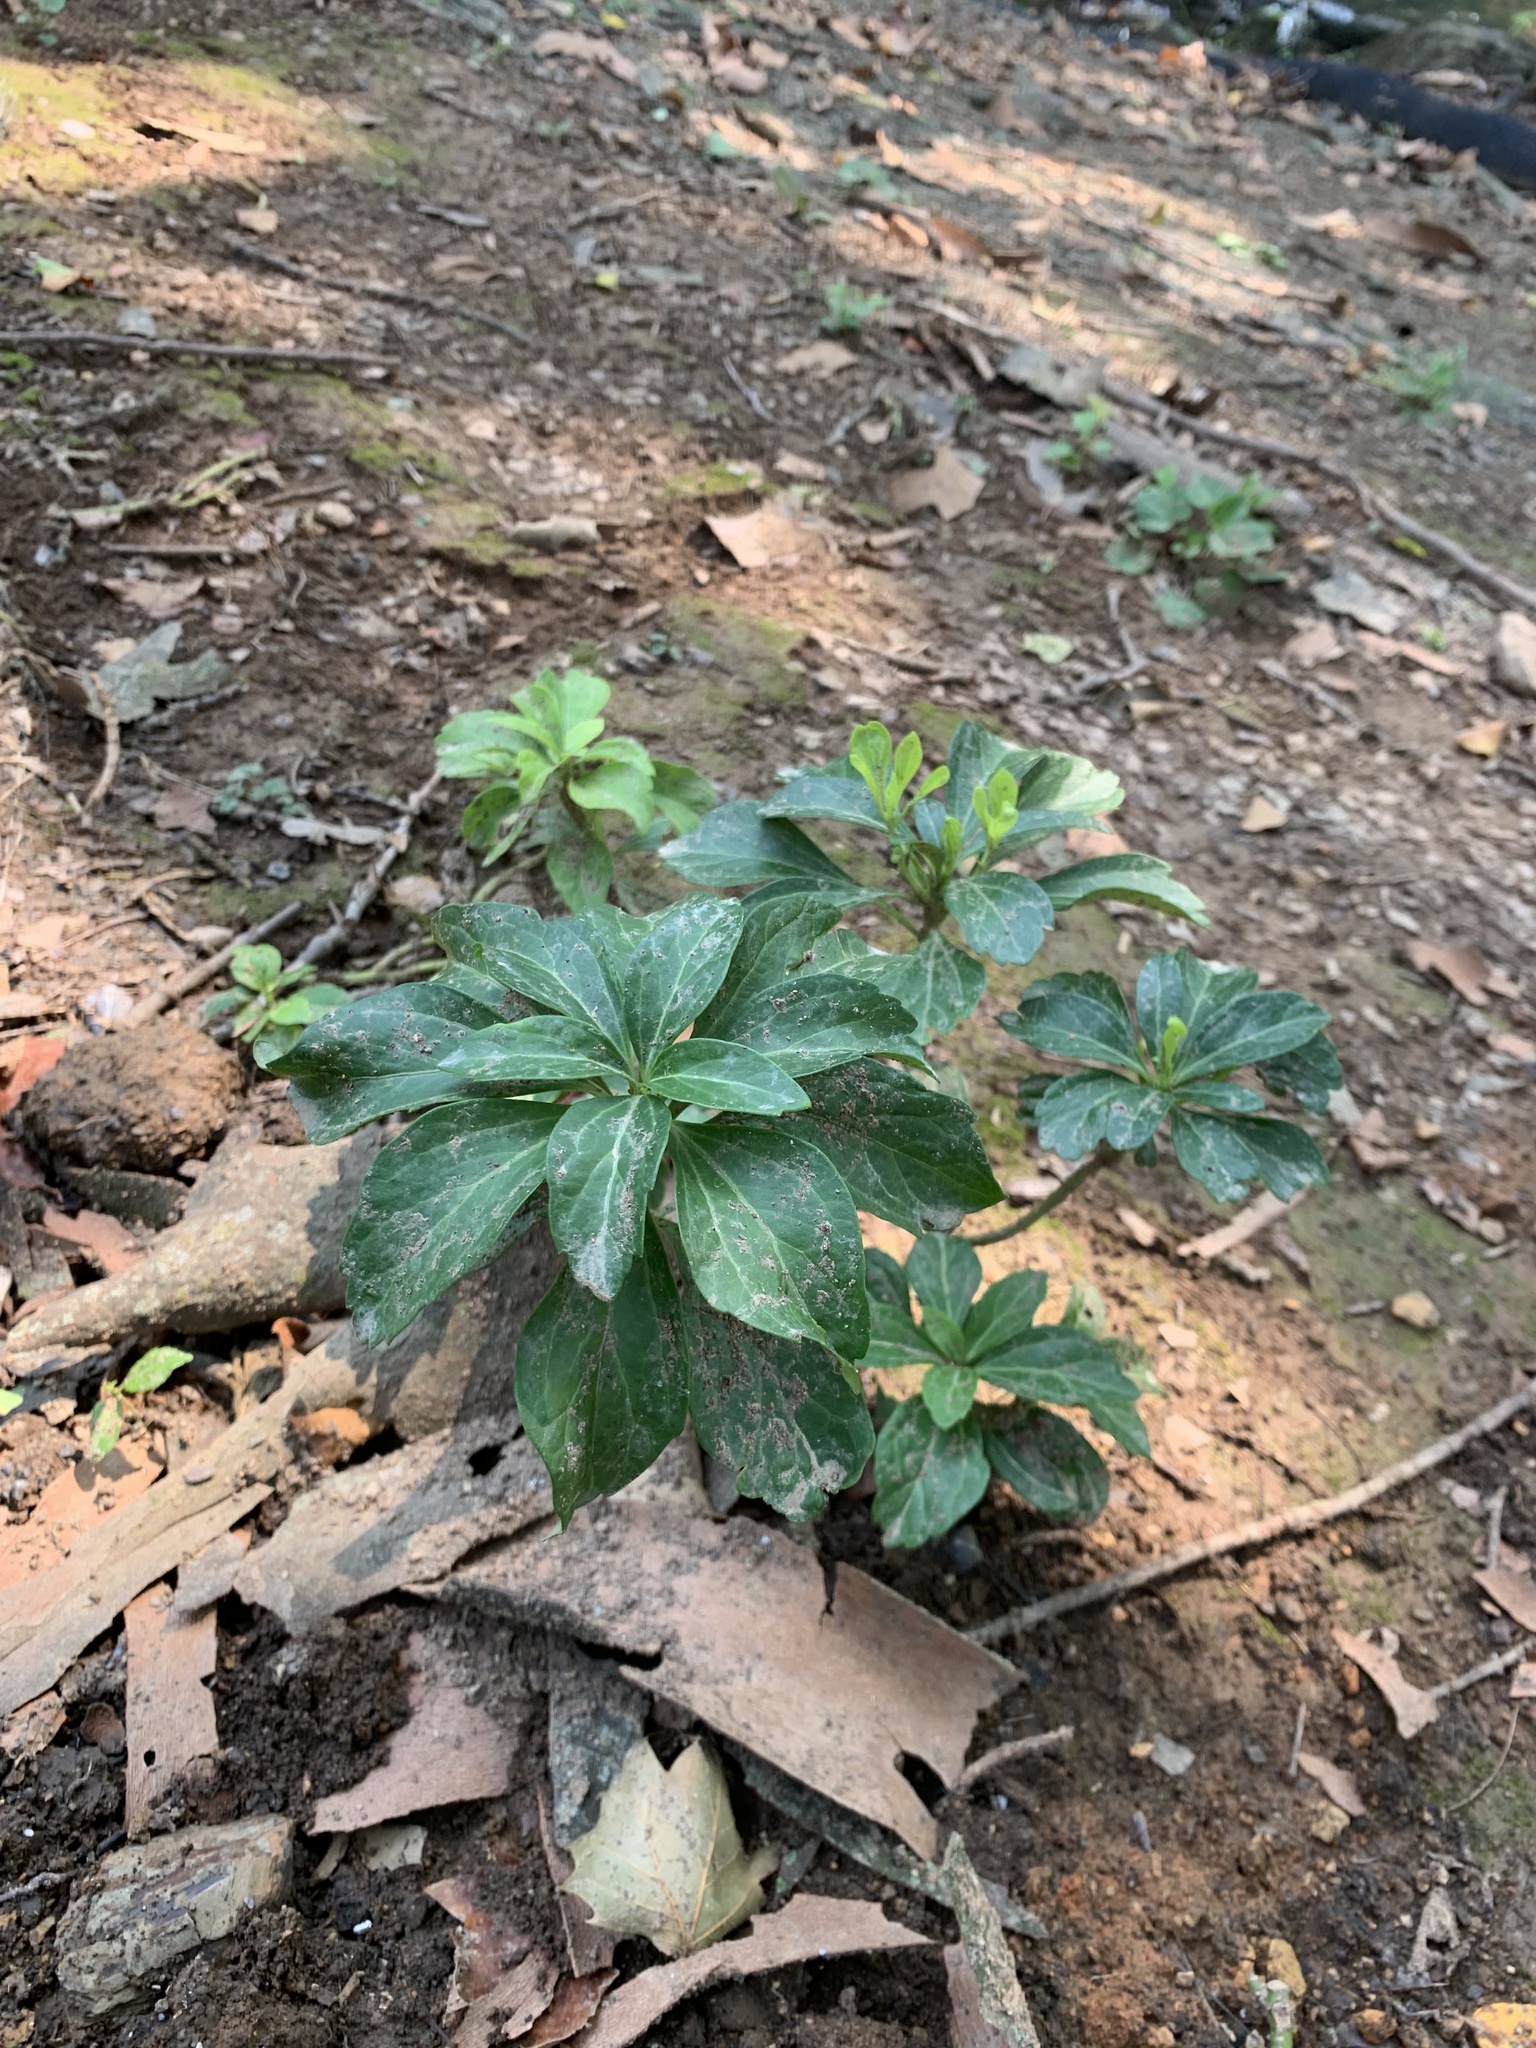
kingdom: Plantae
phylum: Tracheophyta
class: Magnoliopsida
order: Buxales
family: Buxaceae
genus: Pachysandra
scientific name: Pachysandra terminalis
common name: Japanese pachysandra
